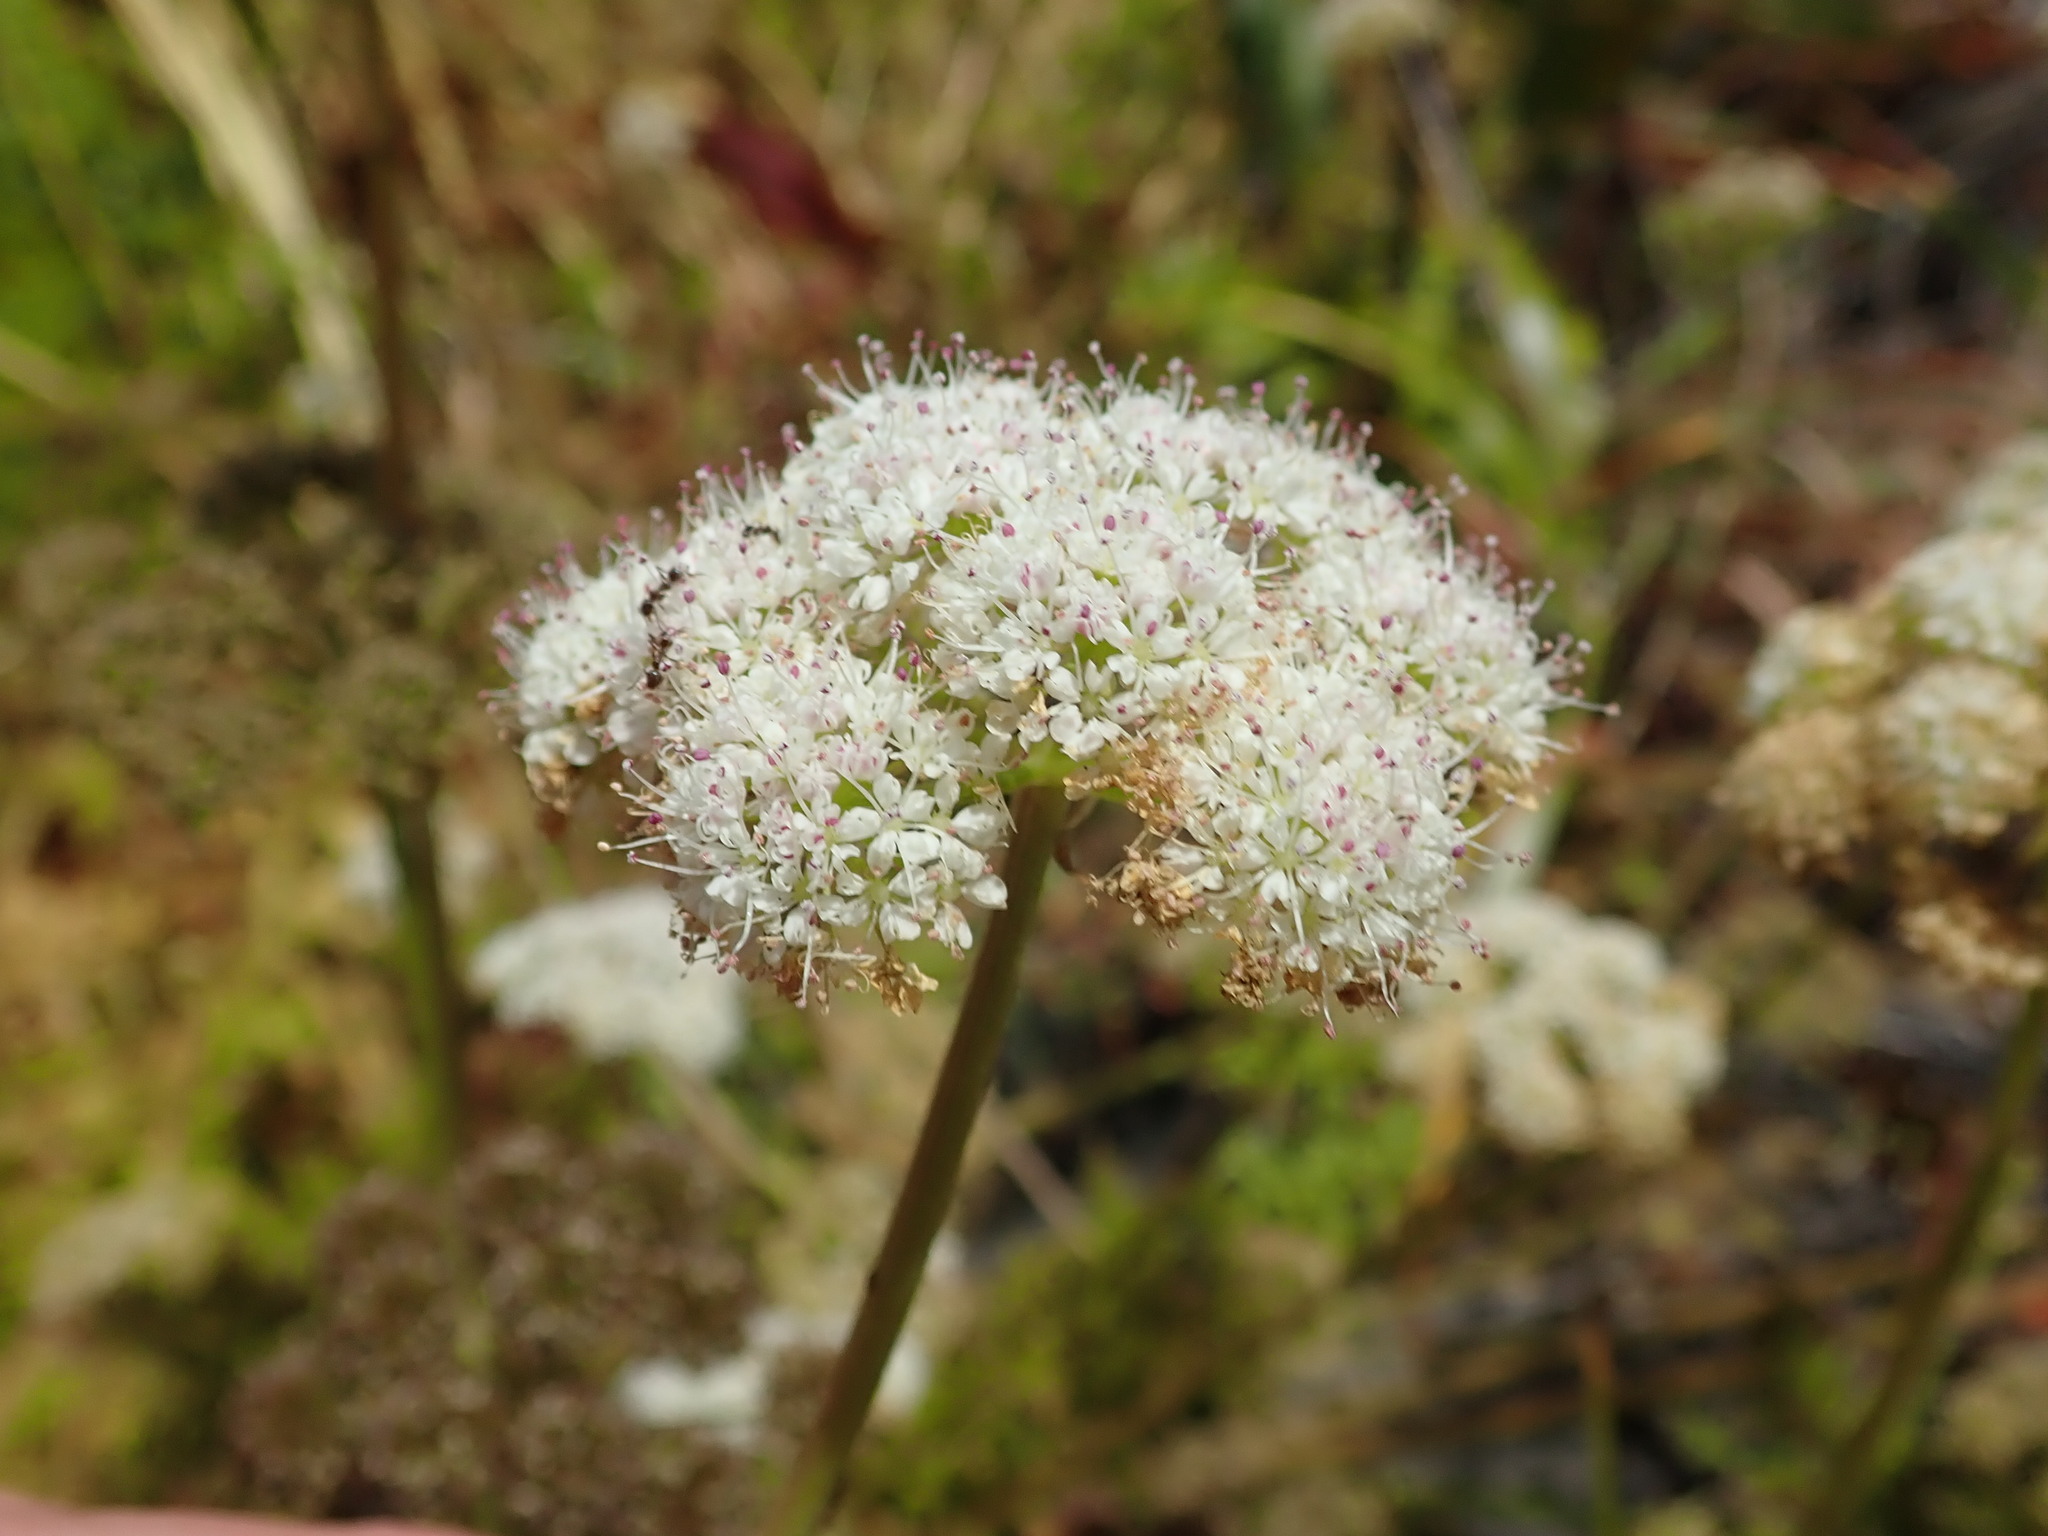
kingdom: Plantae
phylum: Tracheophyta
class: Magnoliopsida
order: Apiales
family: Apiaceae
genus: Oenanthe
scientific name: Oenanthe sarmentosa
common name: American water-parsley
